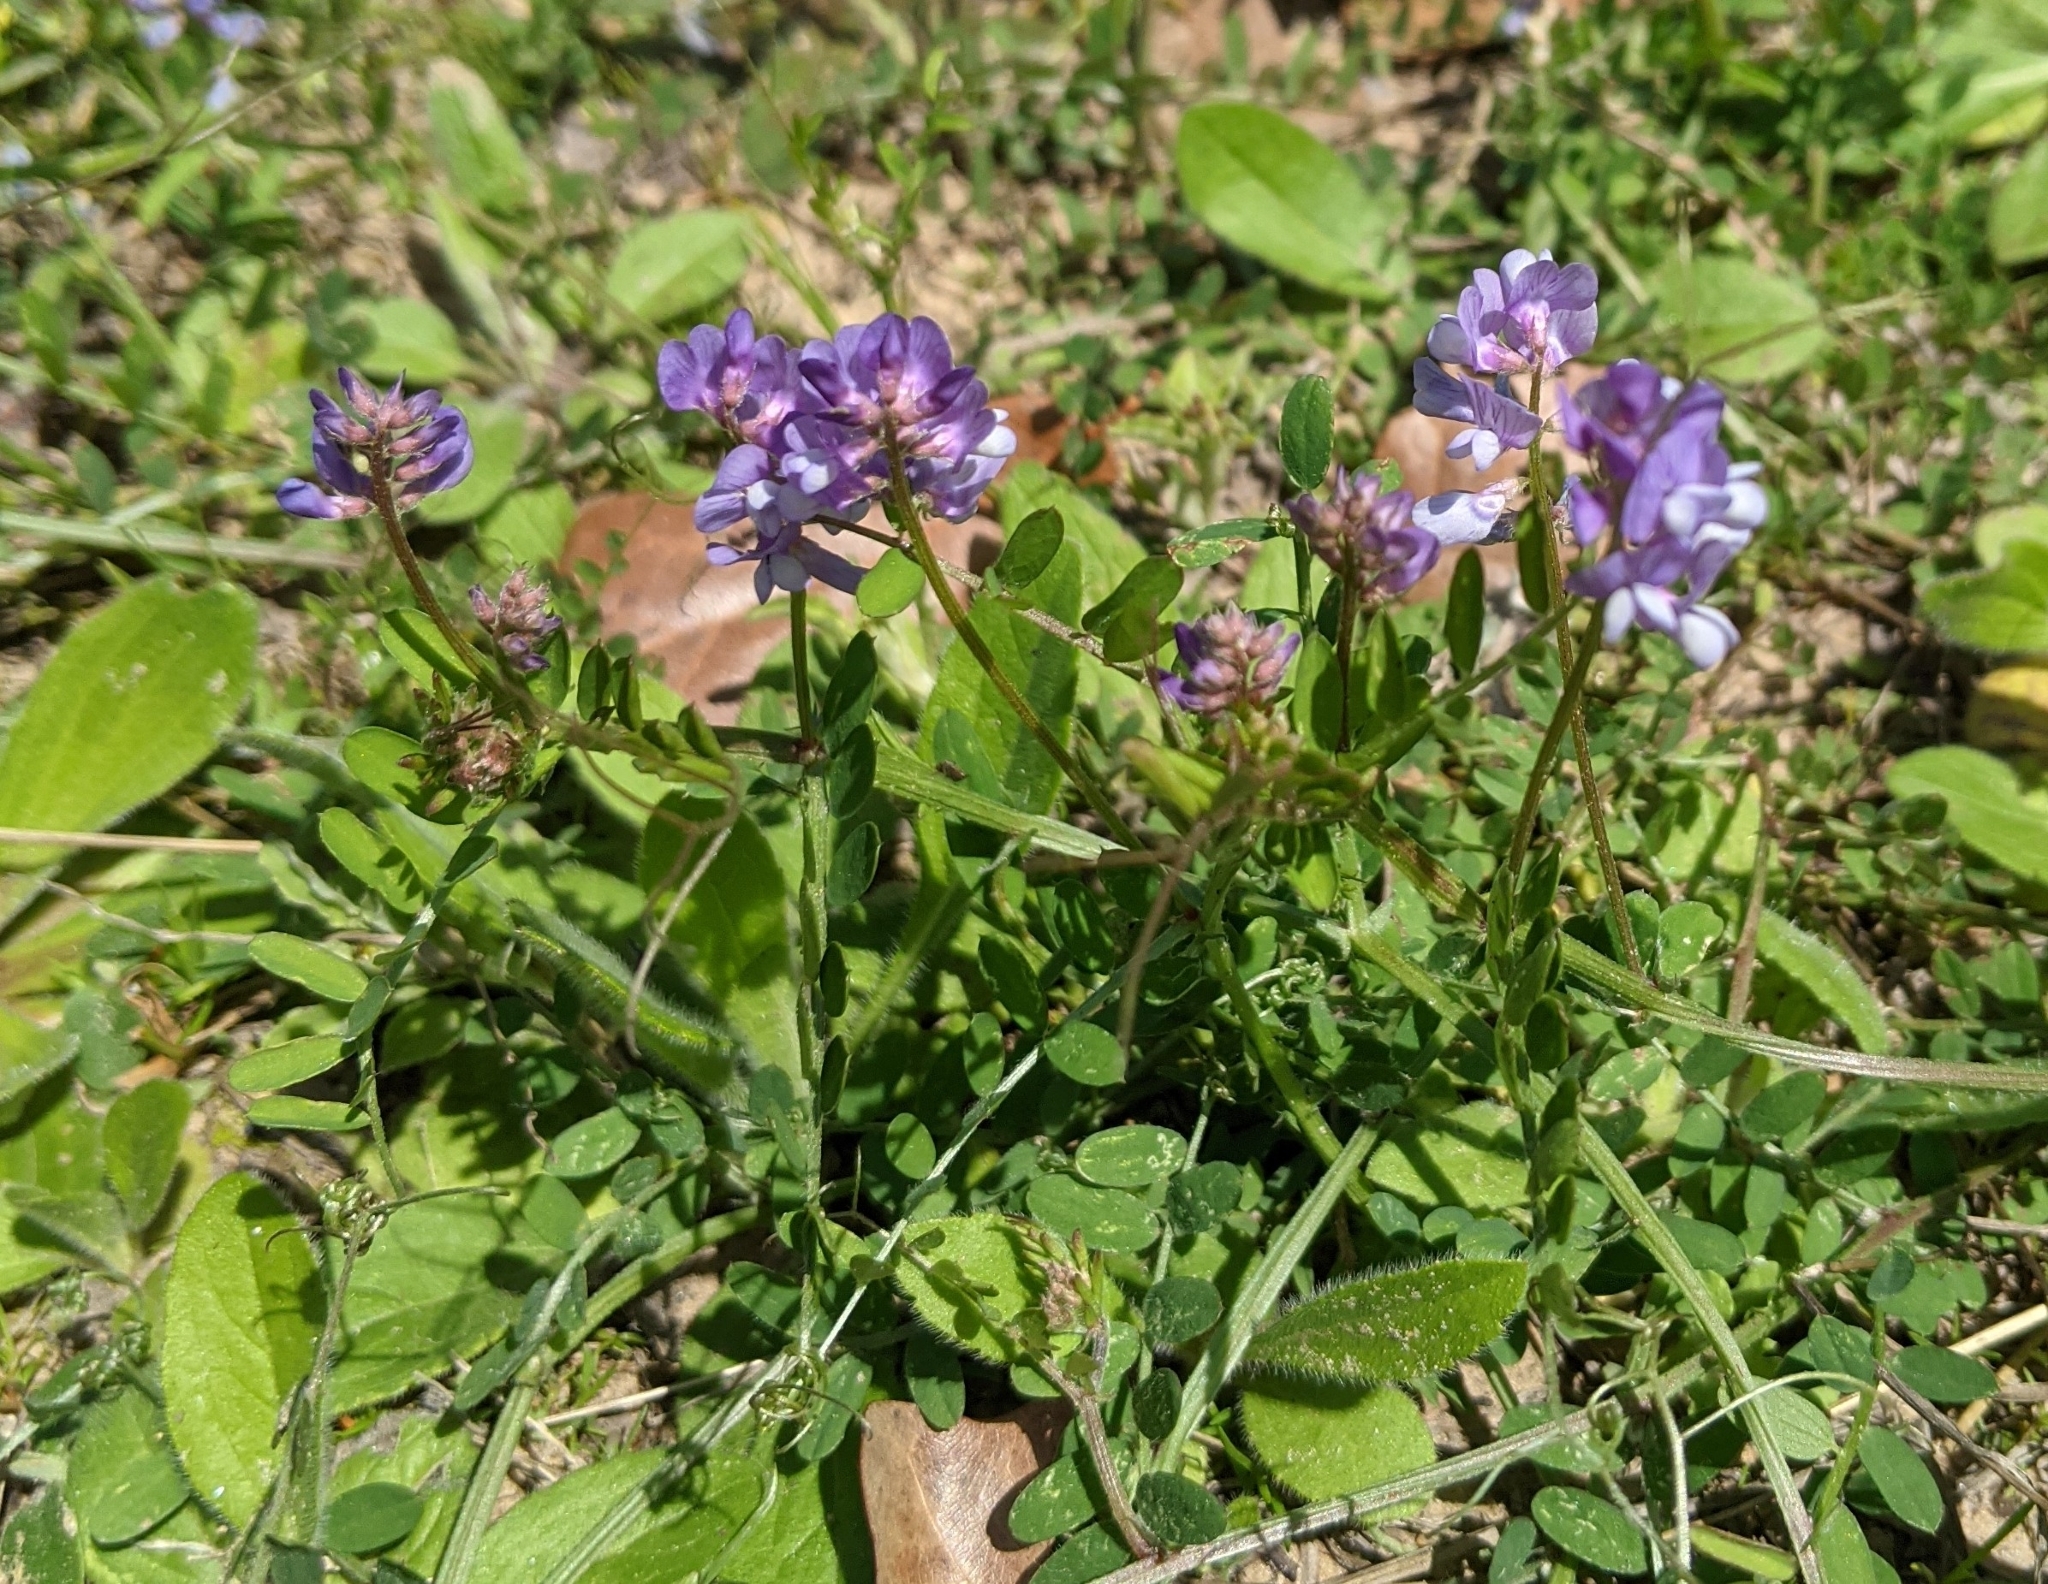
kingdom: Plantae
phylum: Tracheophyta
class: Magnoliopsida
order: Fabales
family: Fabaceae
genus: Vicia
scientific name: Vicia ludoviciana
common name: Louisiana vetch
